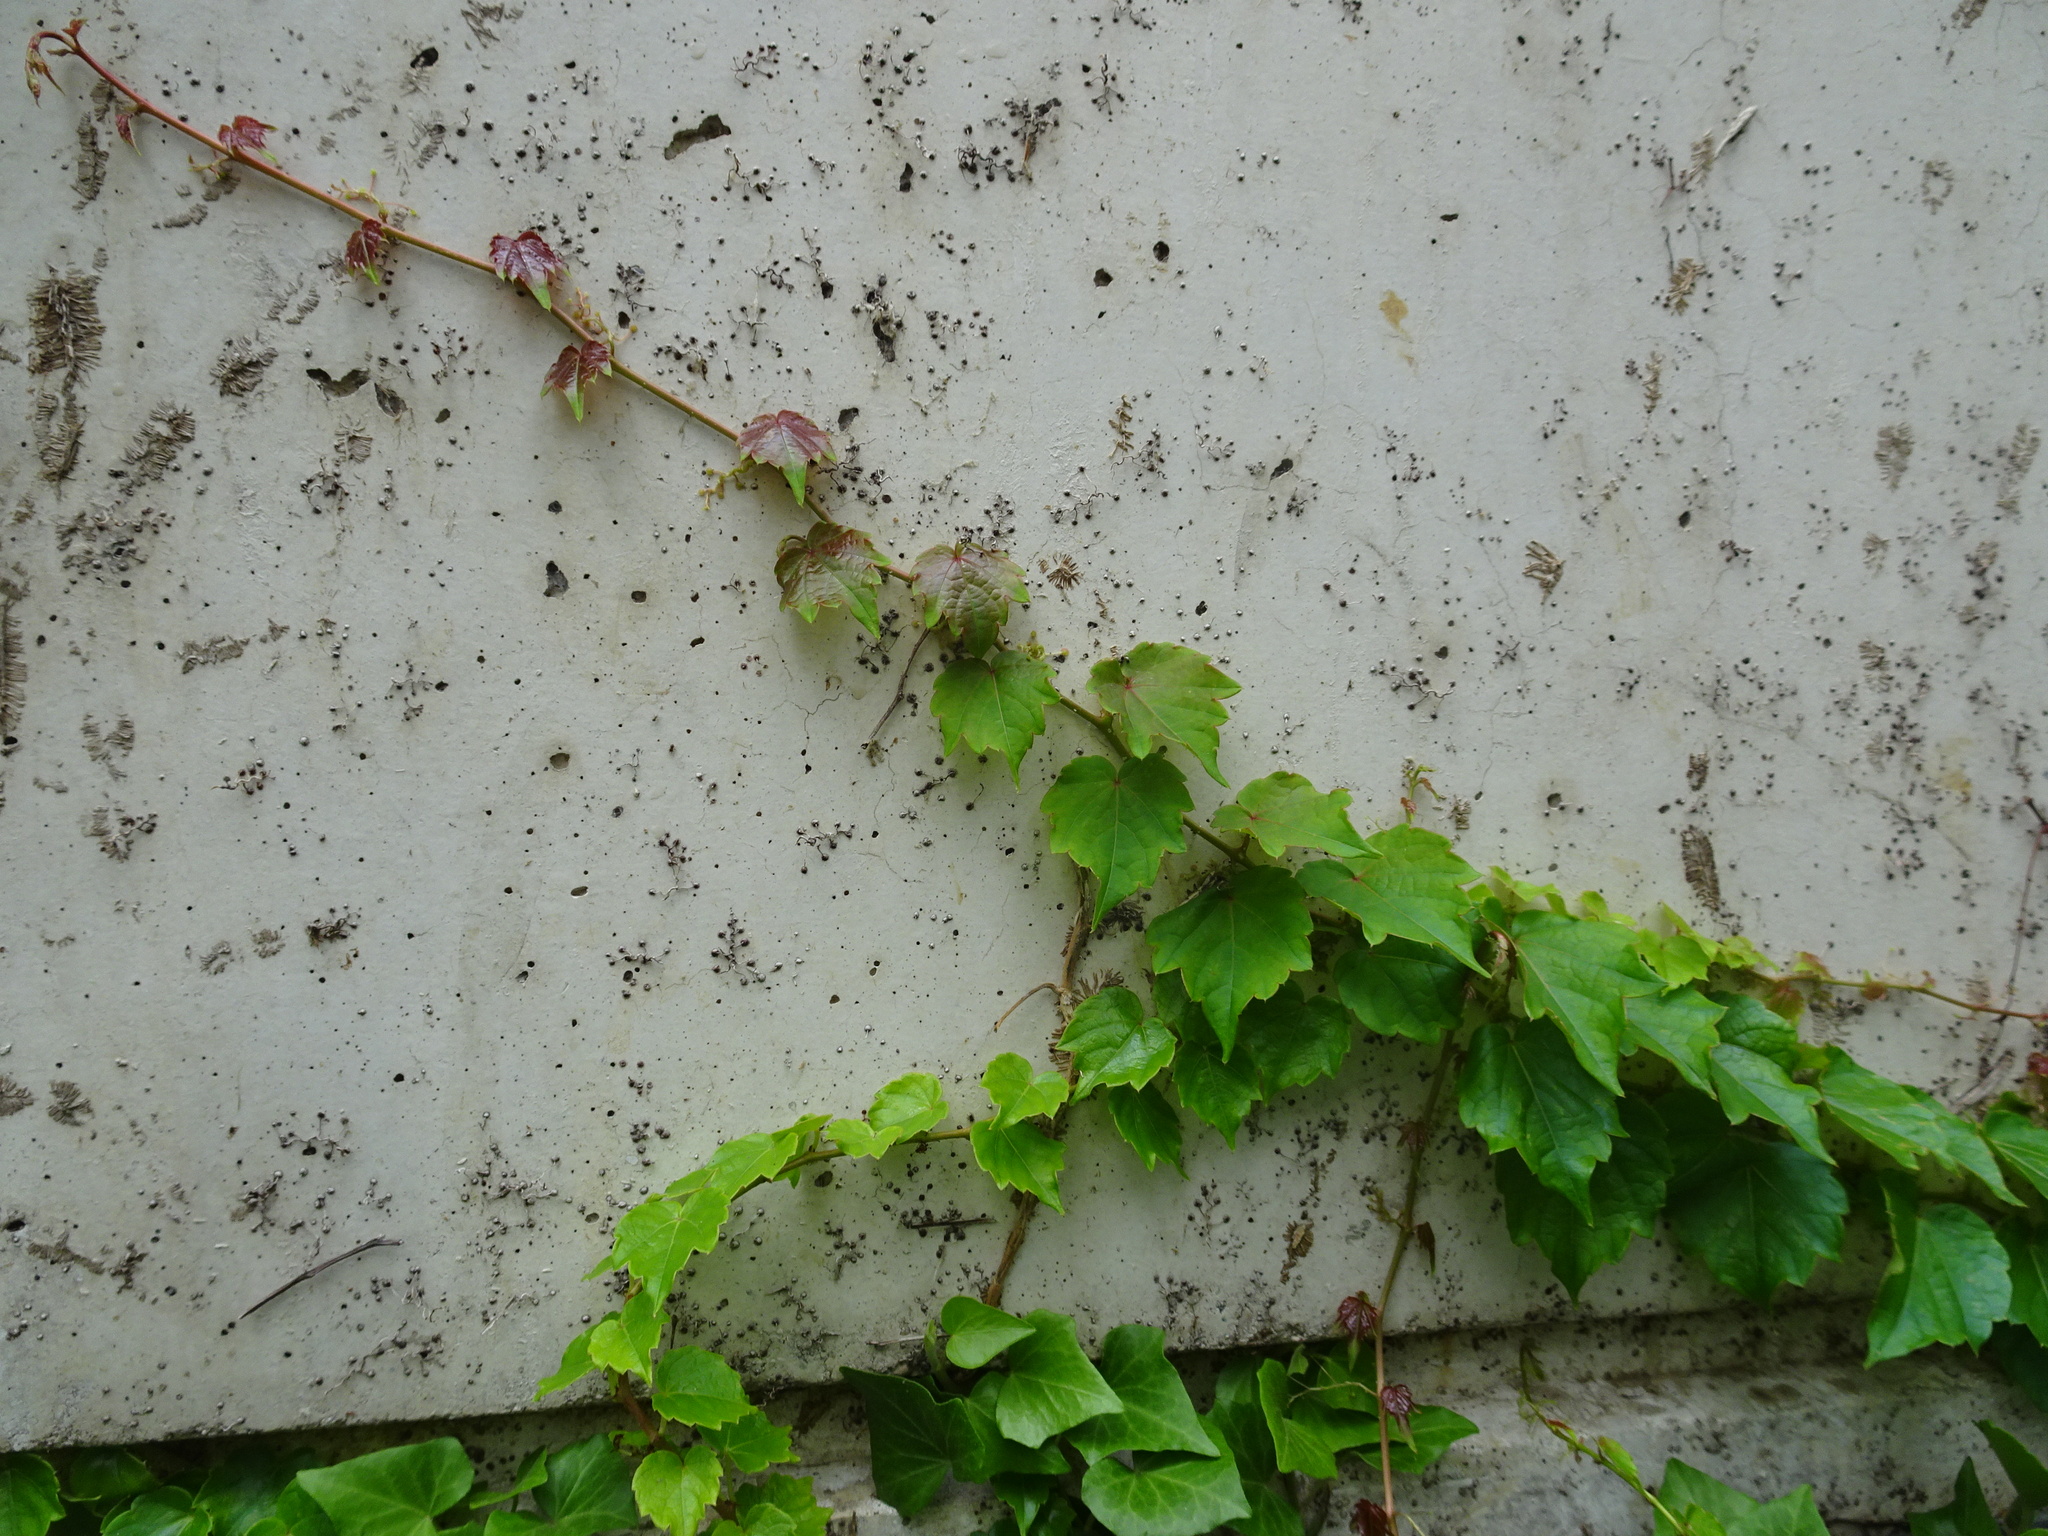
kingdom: Plantae
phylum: Tracheophyta
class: Magnoliopsida
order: Vitales
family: Vitaceae
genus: Parthenocissus
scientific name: Parthenocissus tricuspidata
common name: Boston ivy
